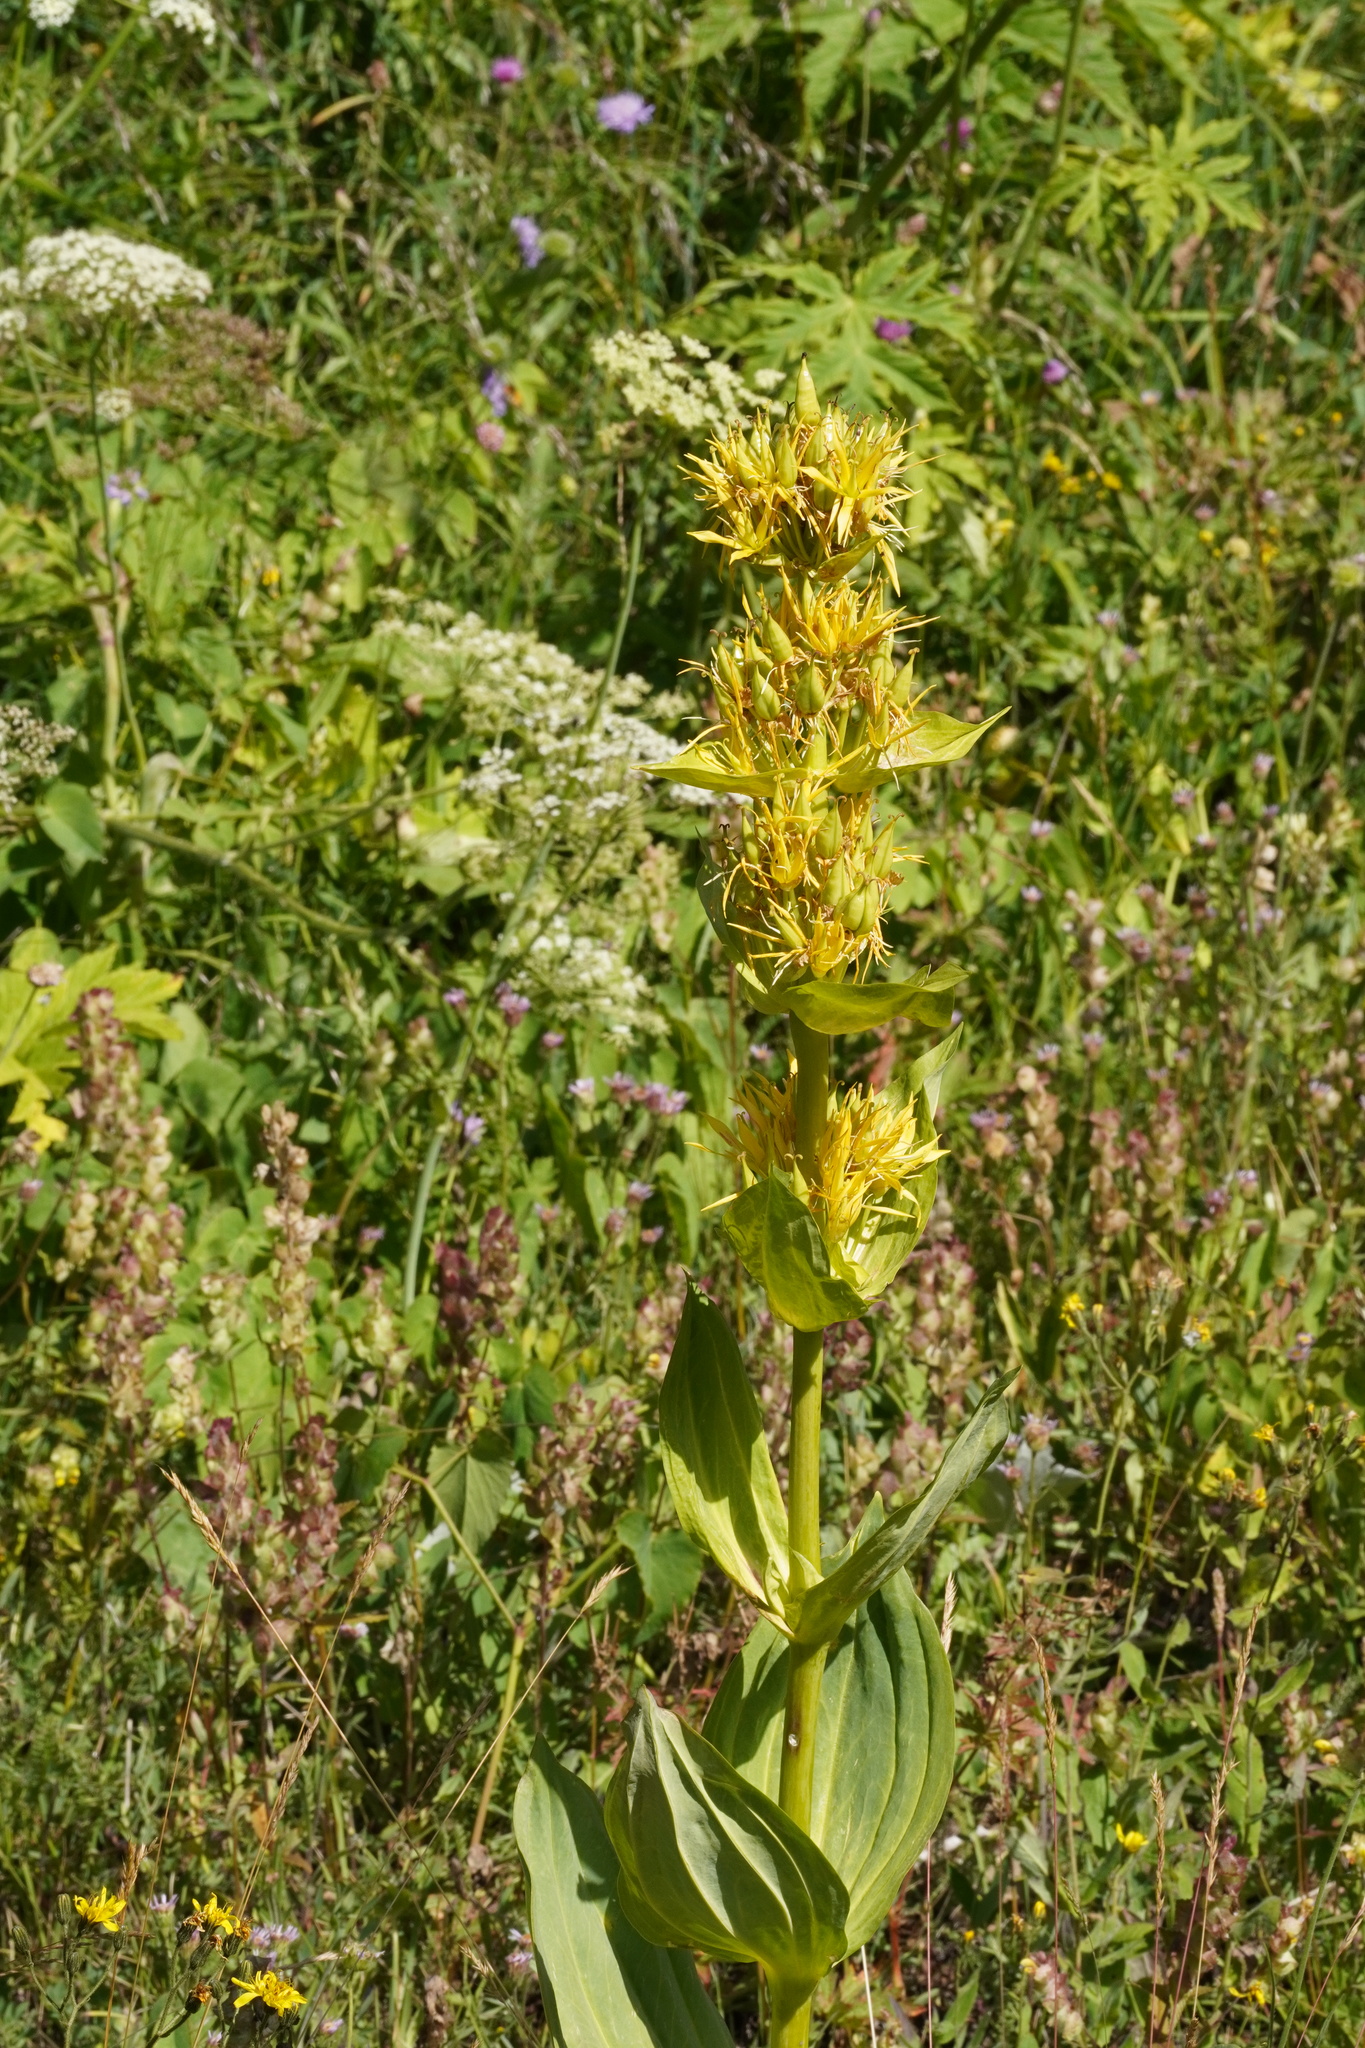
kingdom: Plantae
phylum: Tracheophyta
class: Magnoliopsida
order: Gentianales
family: Gentianaceae
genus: Gentiana
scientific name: Gentiana lutea
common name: Great yellow gentian
